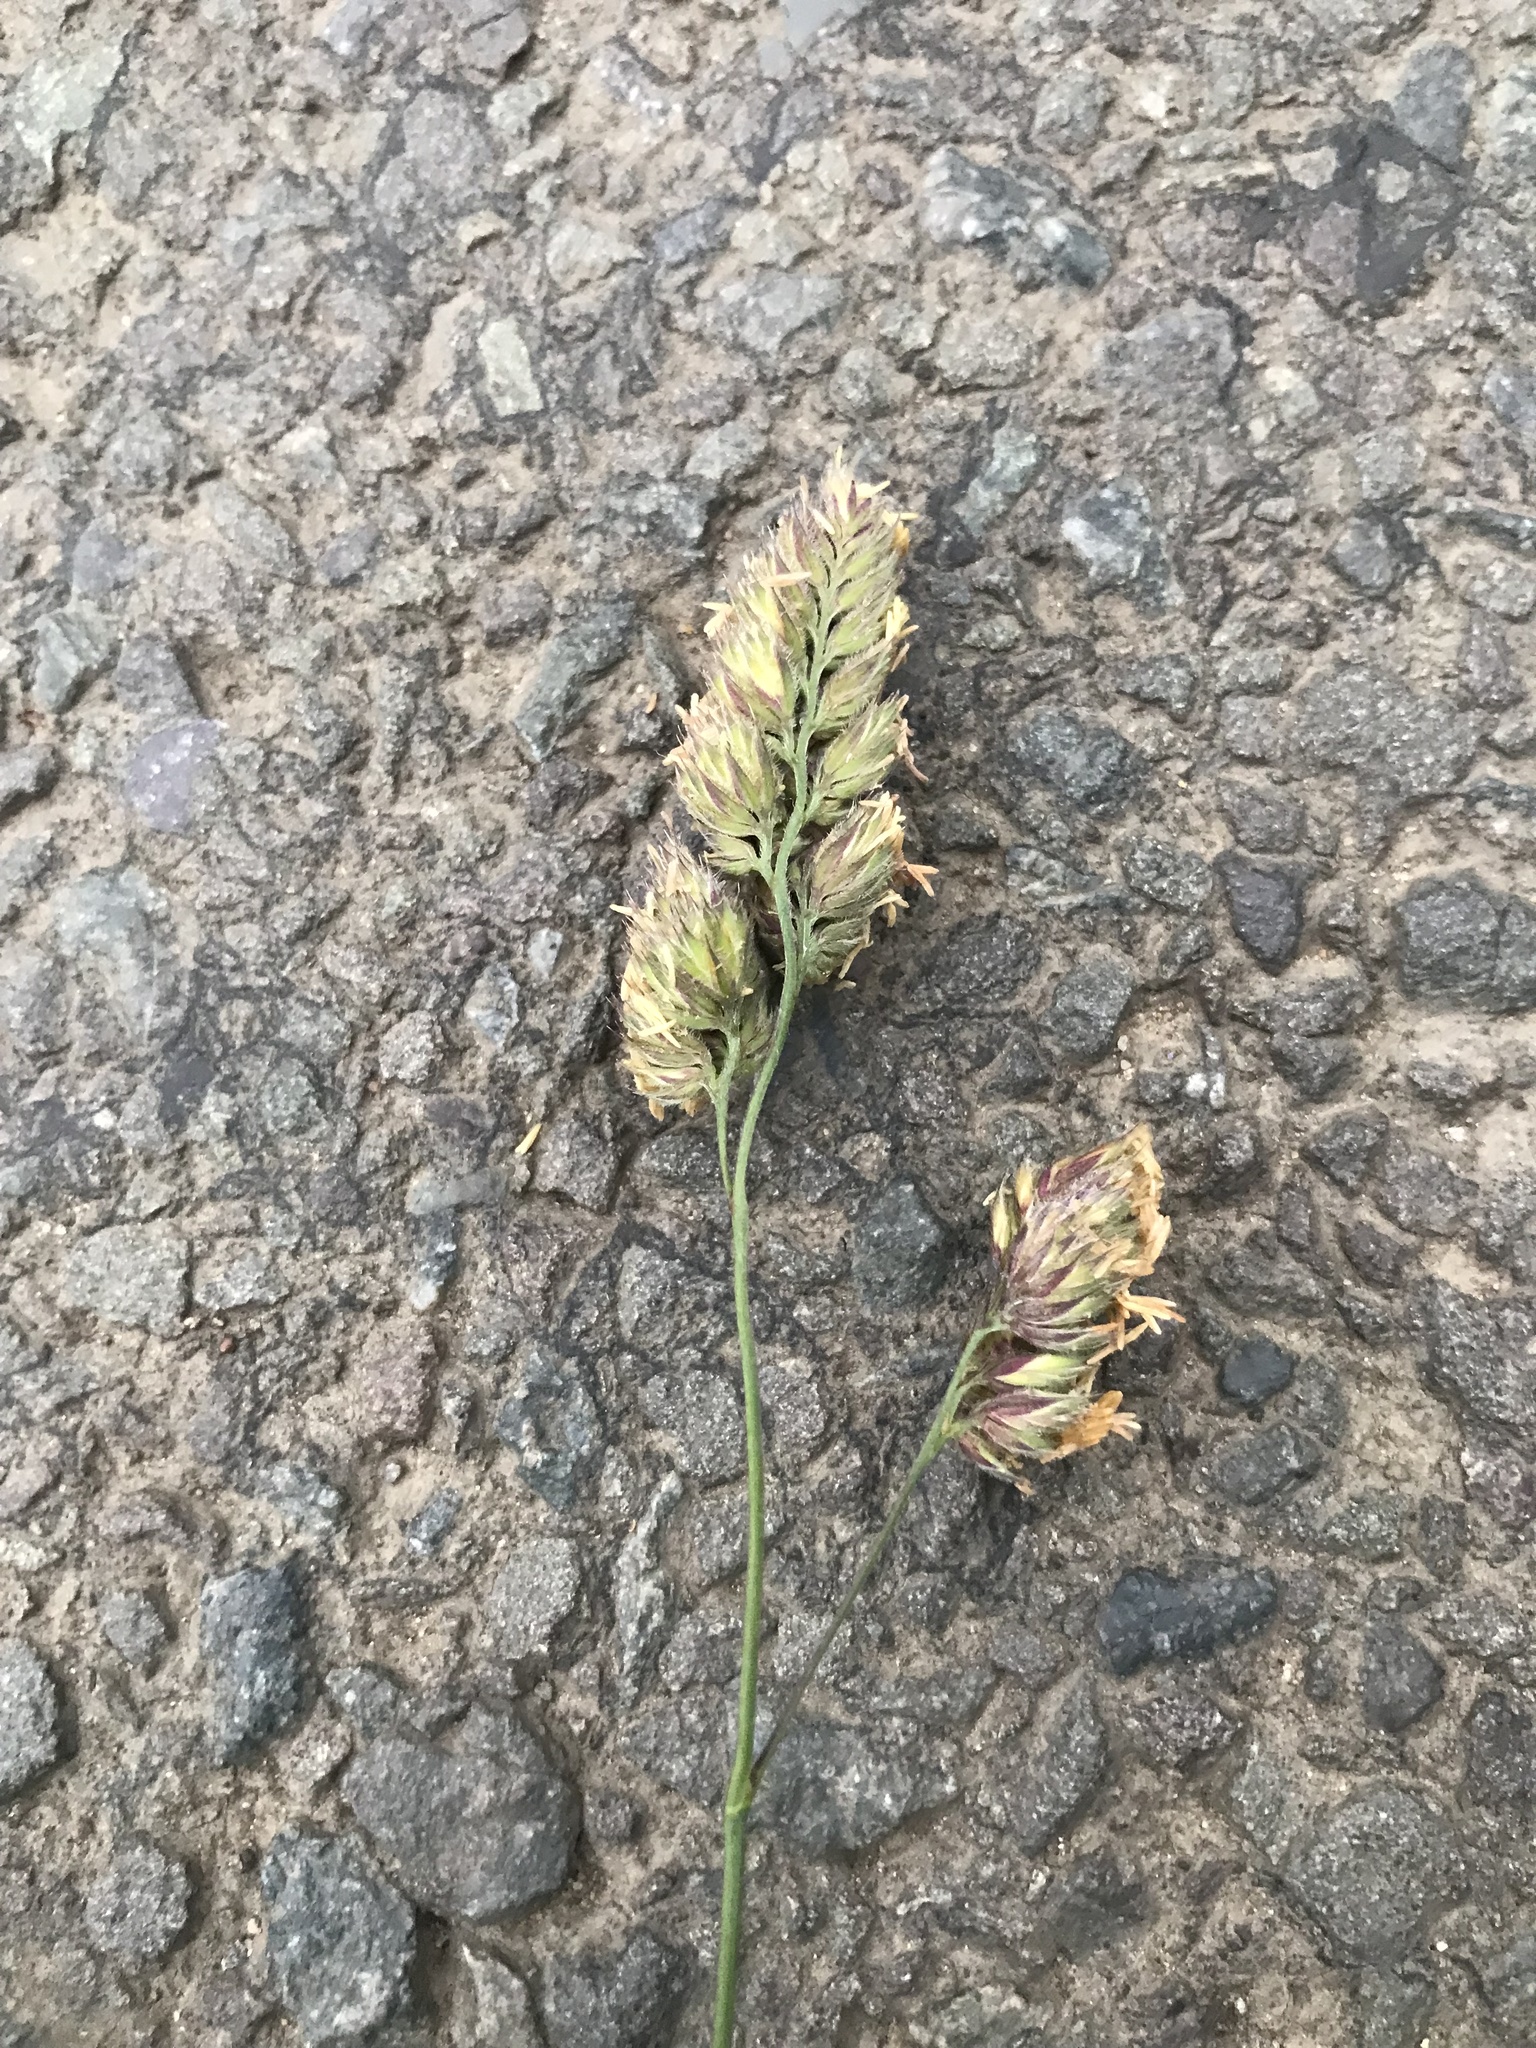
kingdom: Plantae
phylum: Tracheophyta
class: Liliopsida
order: Poales
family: Poaceae
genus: Dactylis
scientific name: Dactylis glomerata
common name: Orchardgrass
